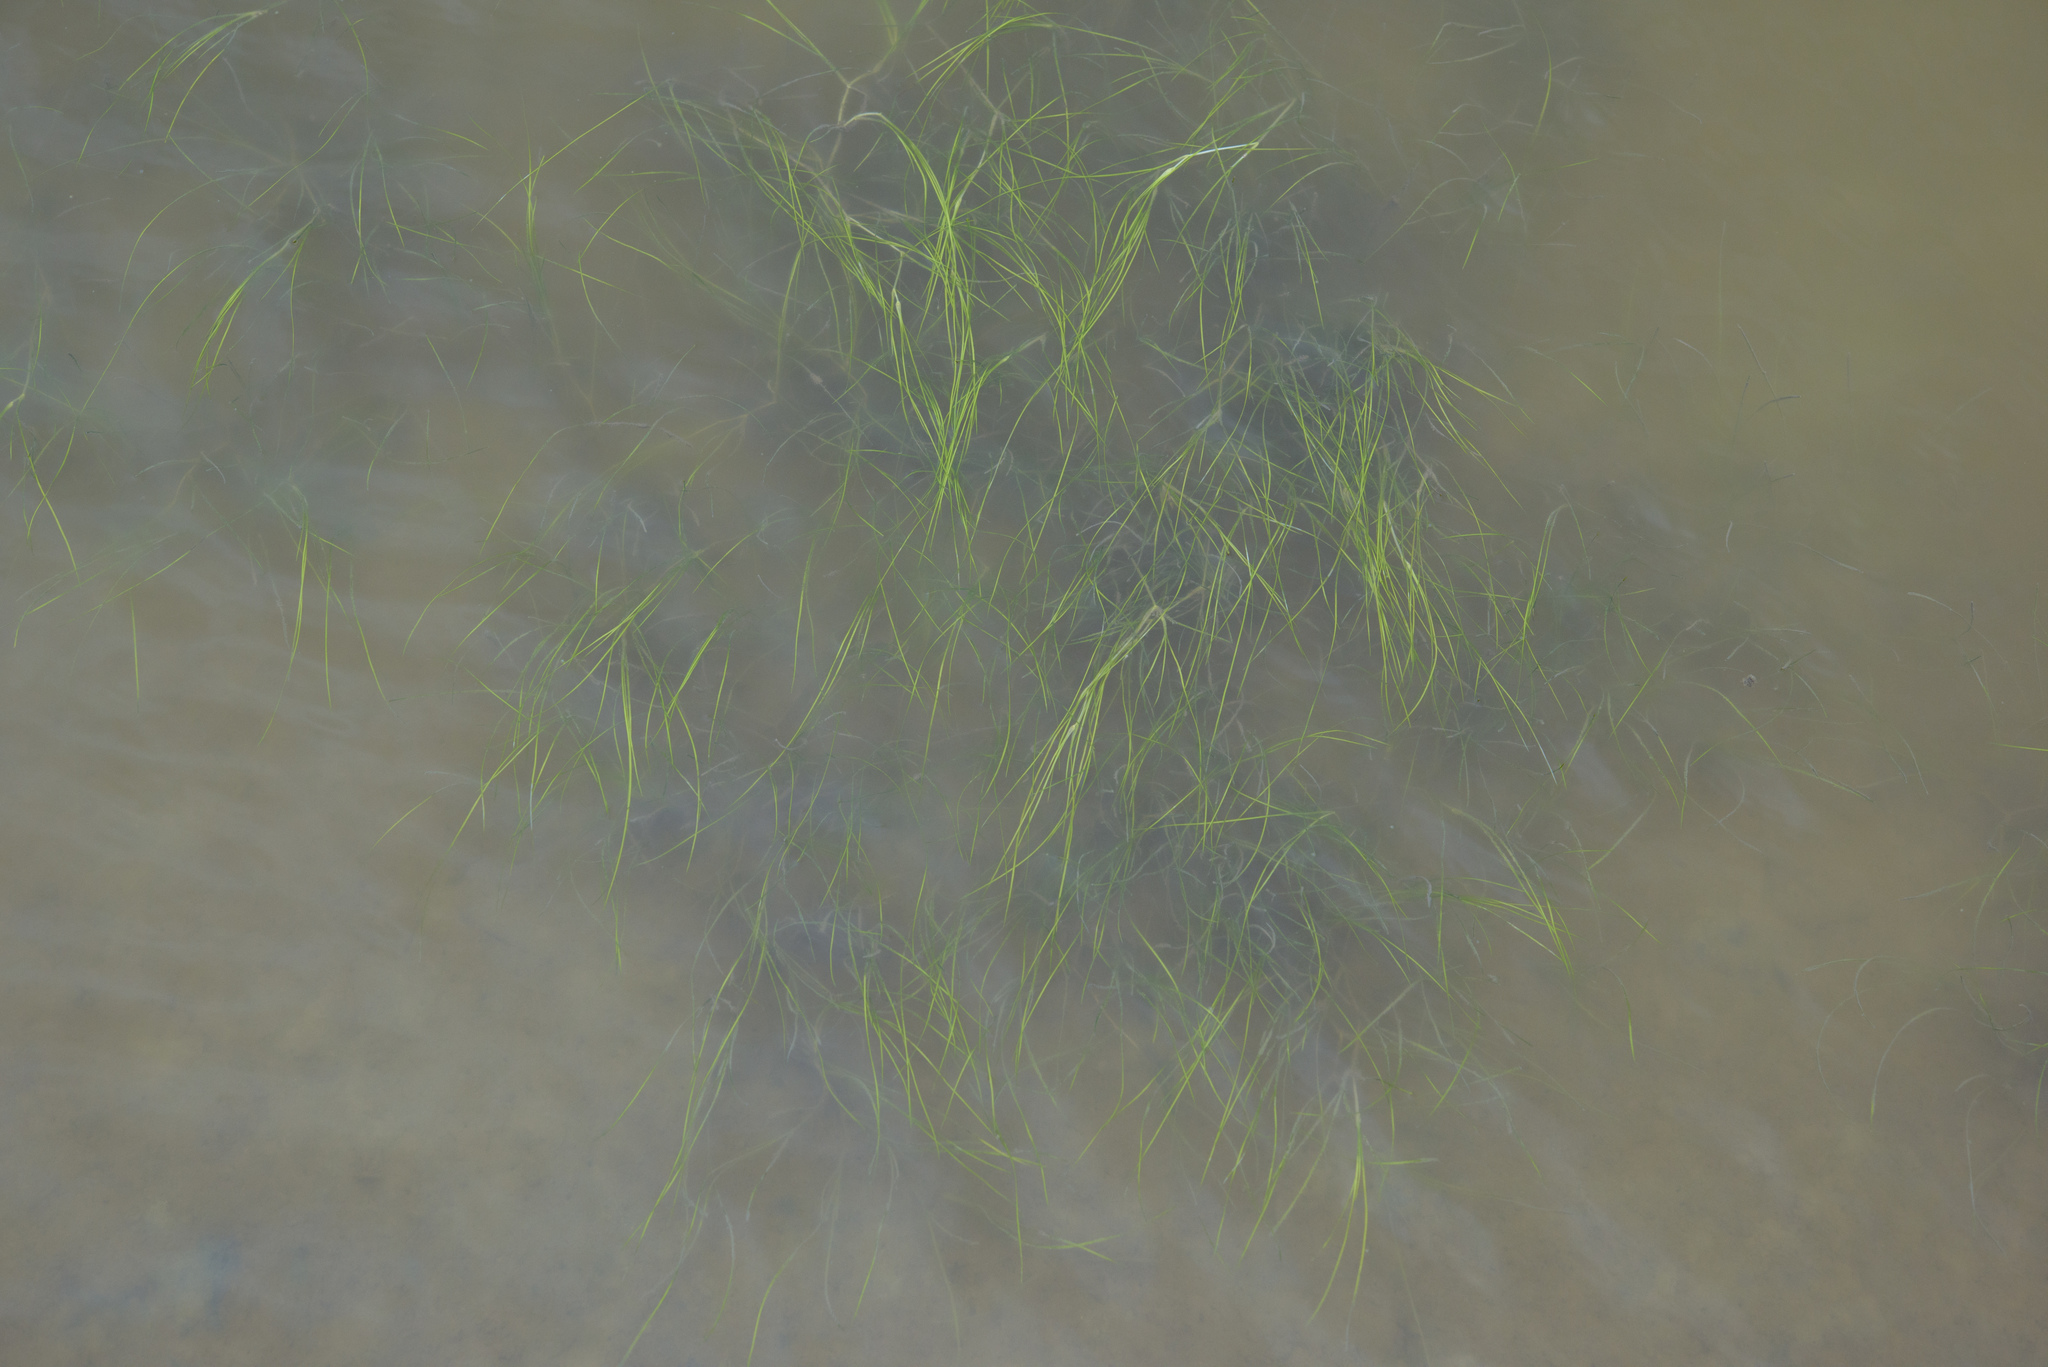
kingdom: Plantae
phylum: Tracheophyta
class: Liliopsida
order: Alismatales
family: Ruppiaceae
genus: Ruppia
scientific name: Ruppia maritima
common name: Beaked tasselweed
